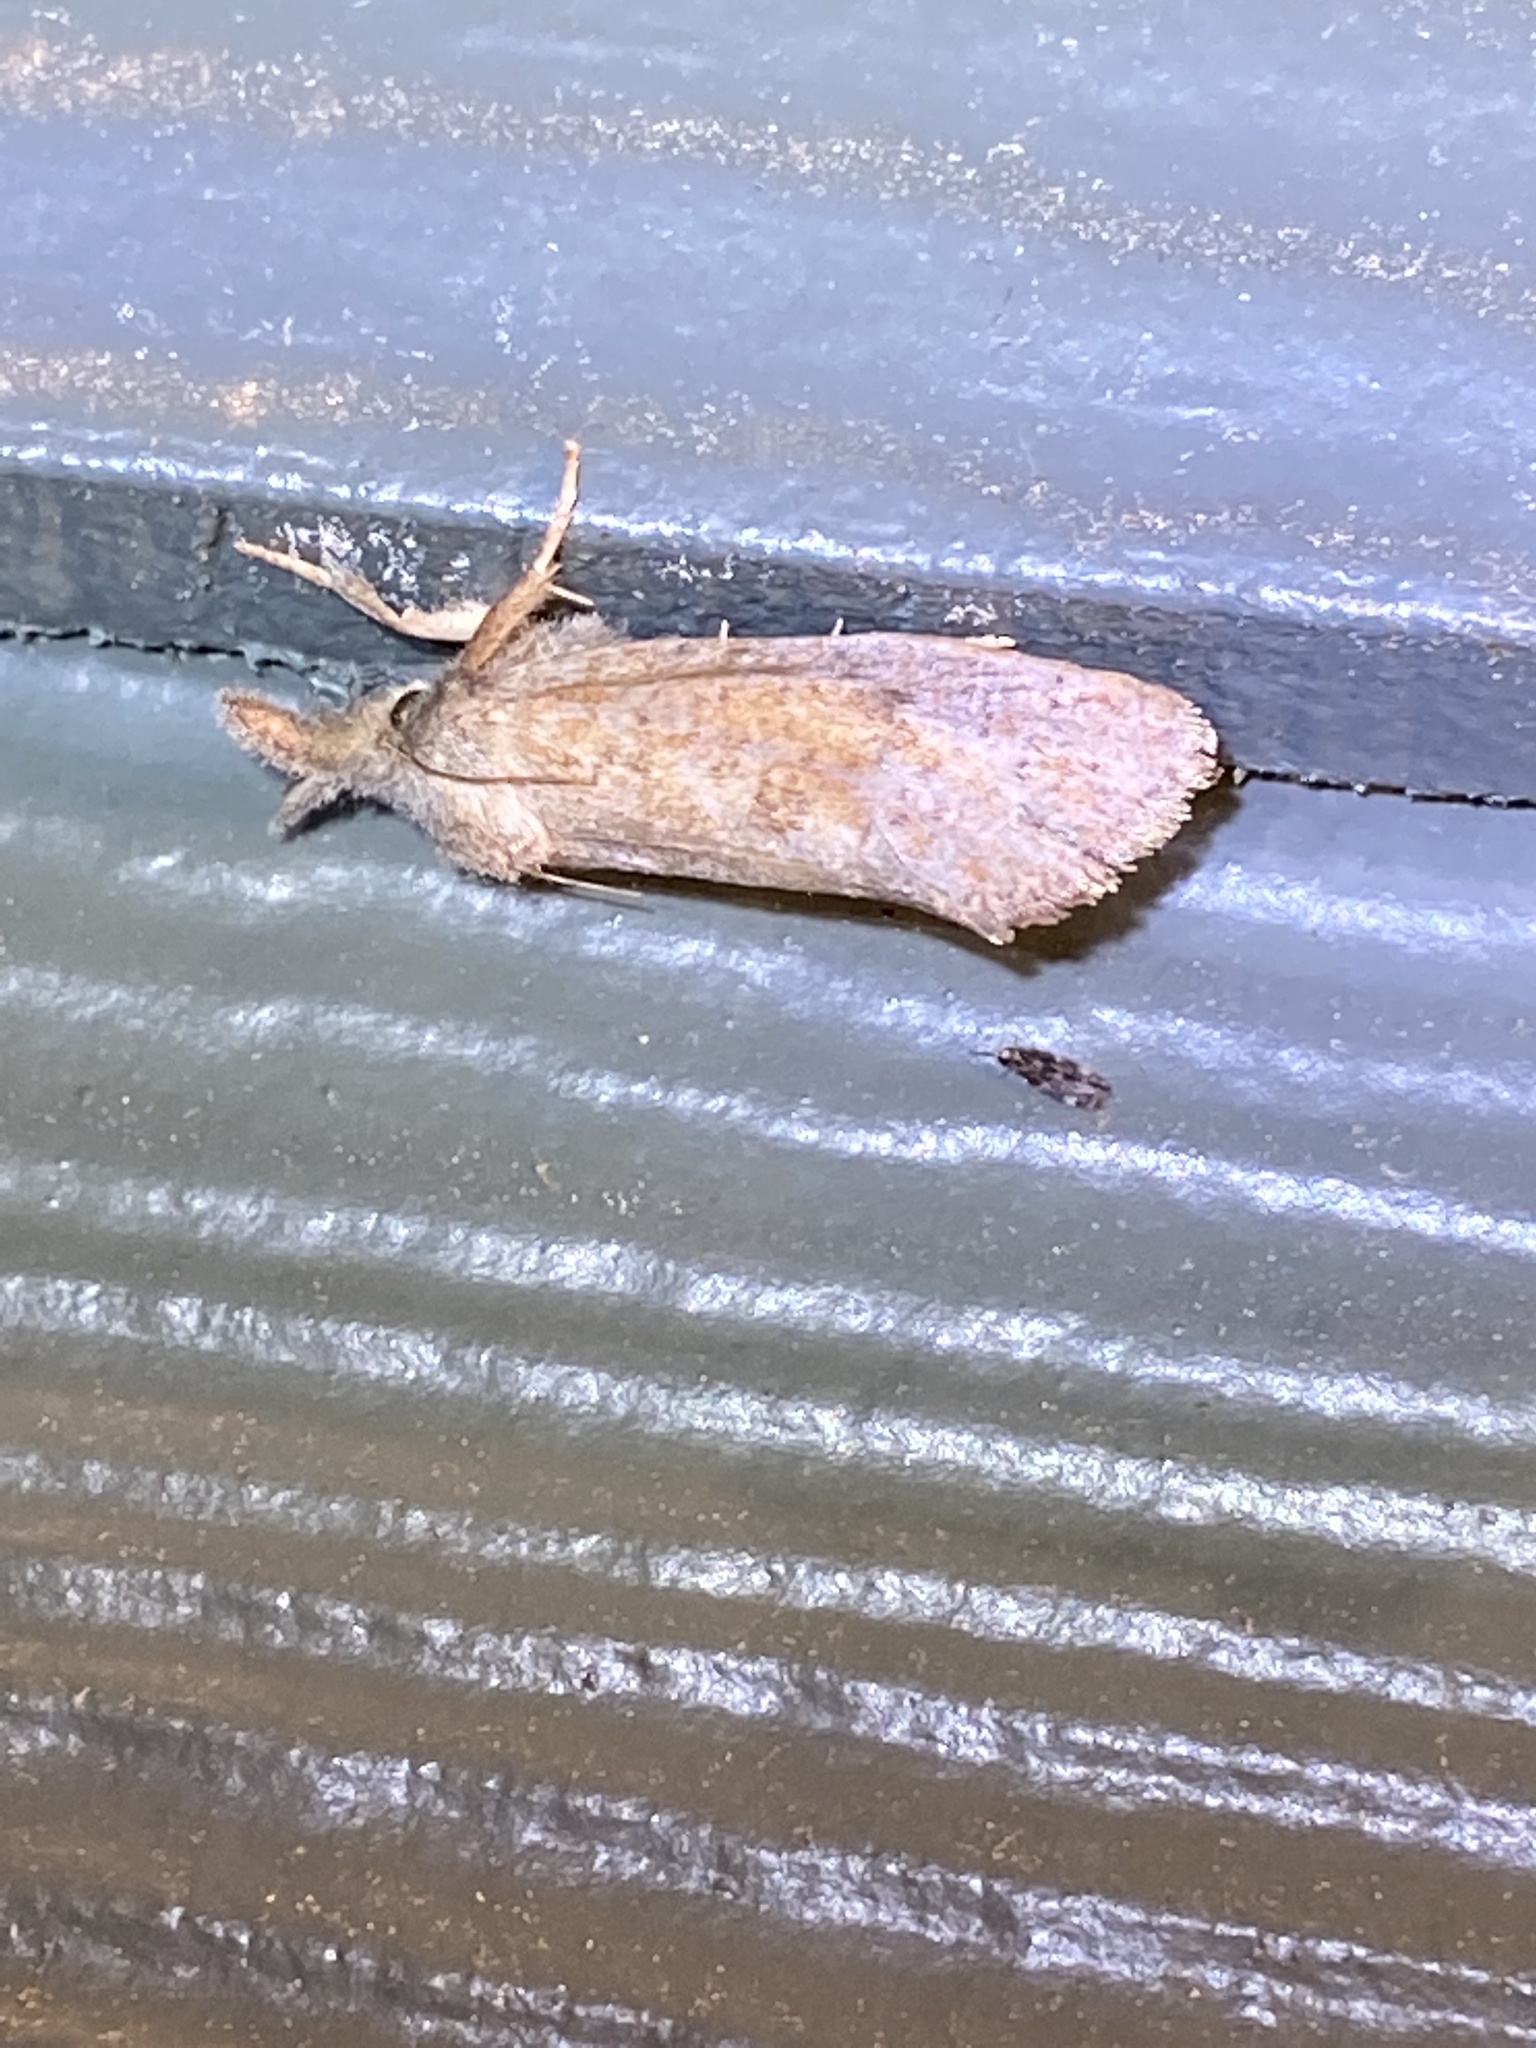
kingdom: Animalia
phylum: Arthropoda
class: Insecta
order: Lepidoptera
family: Tineidae
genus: Acrolophus
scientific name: Acrolophus plumifrontella
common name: Eastern grass tubeworm moth
